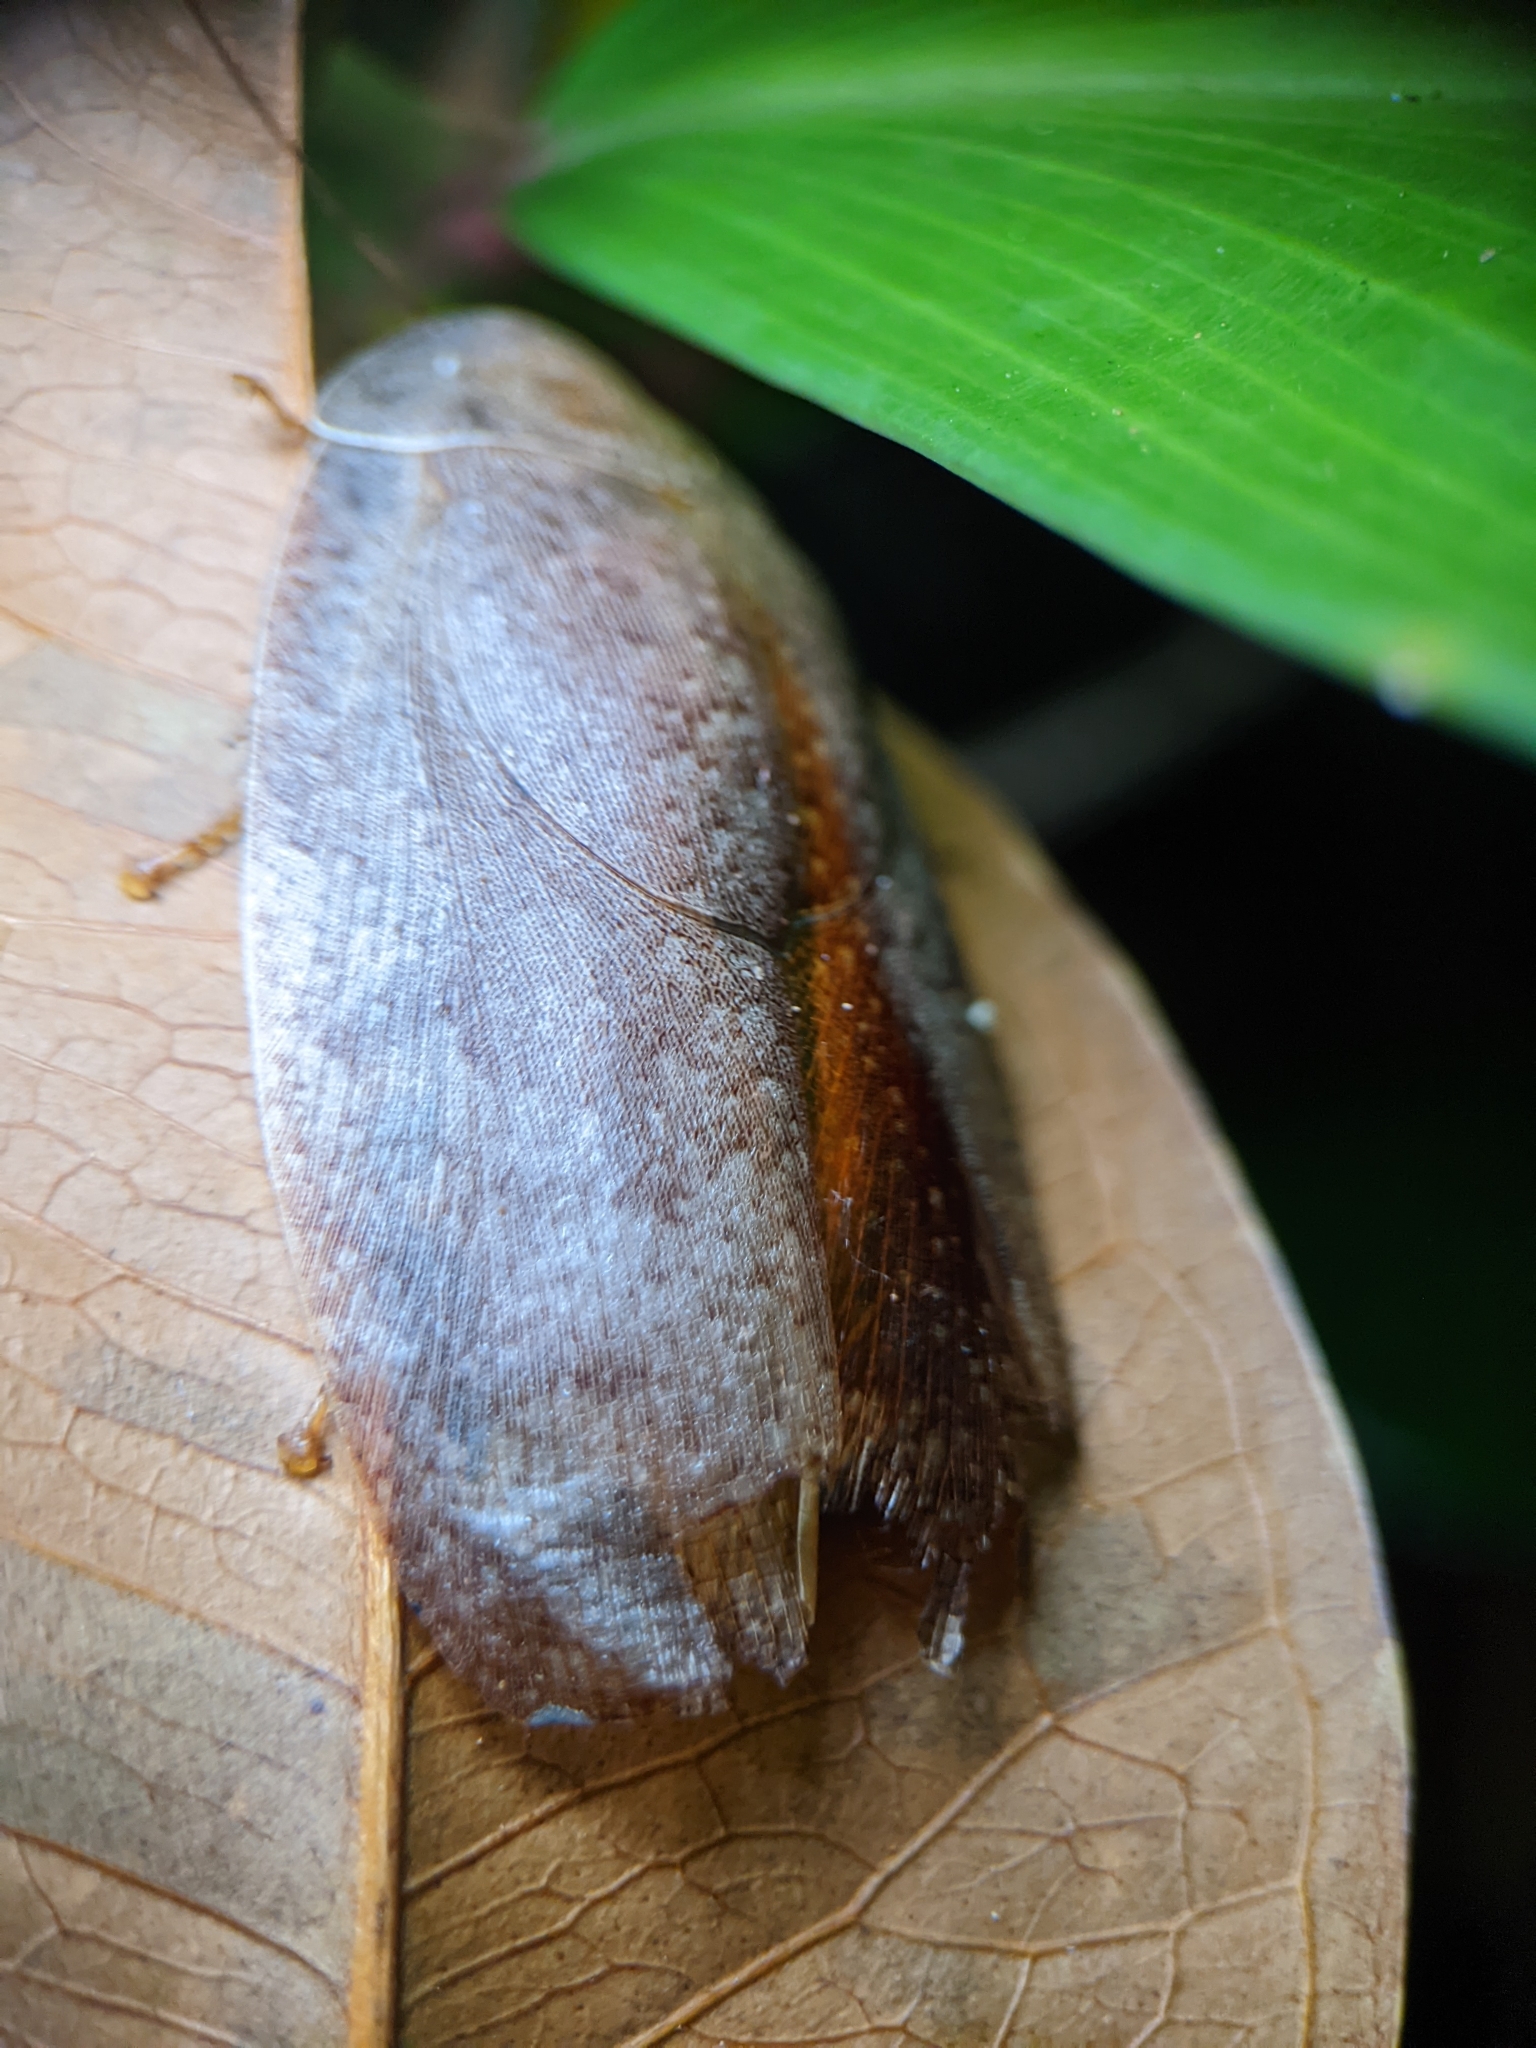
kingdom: Animalia
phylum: Arthropoda
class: Insecta
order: Blattodea
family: Blaberidae
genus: Pseudophoraspis
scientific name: Pseudophoraspis nebulosa
